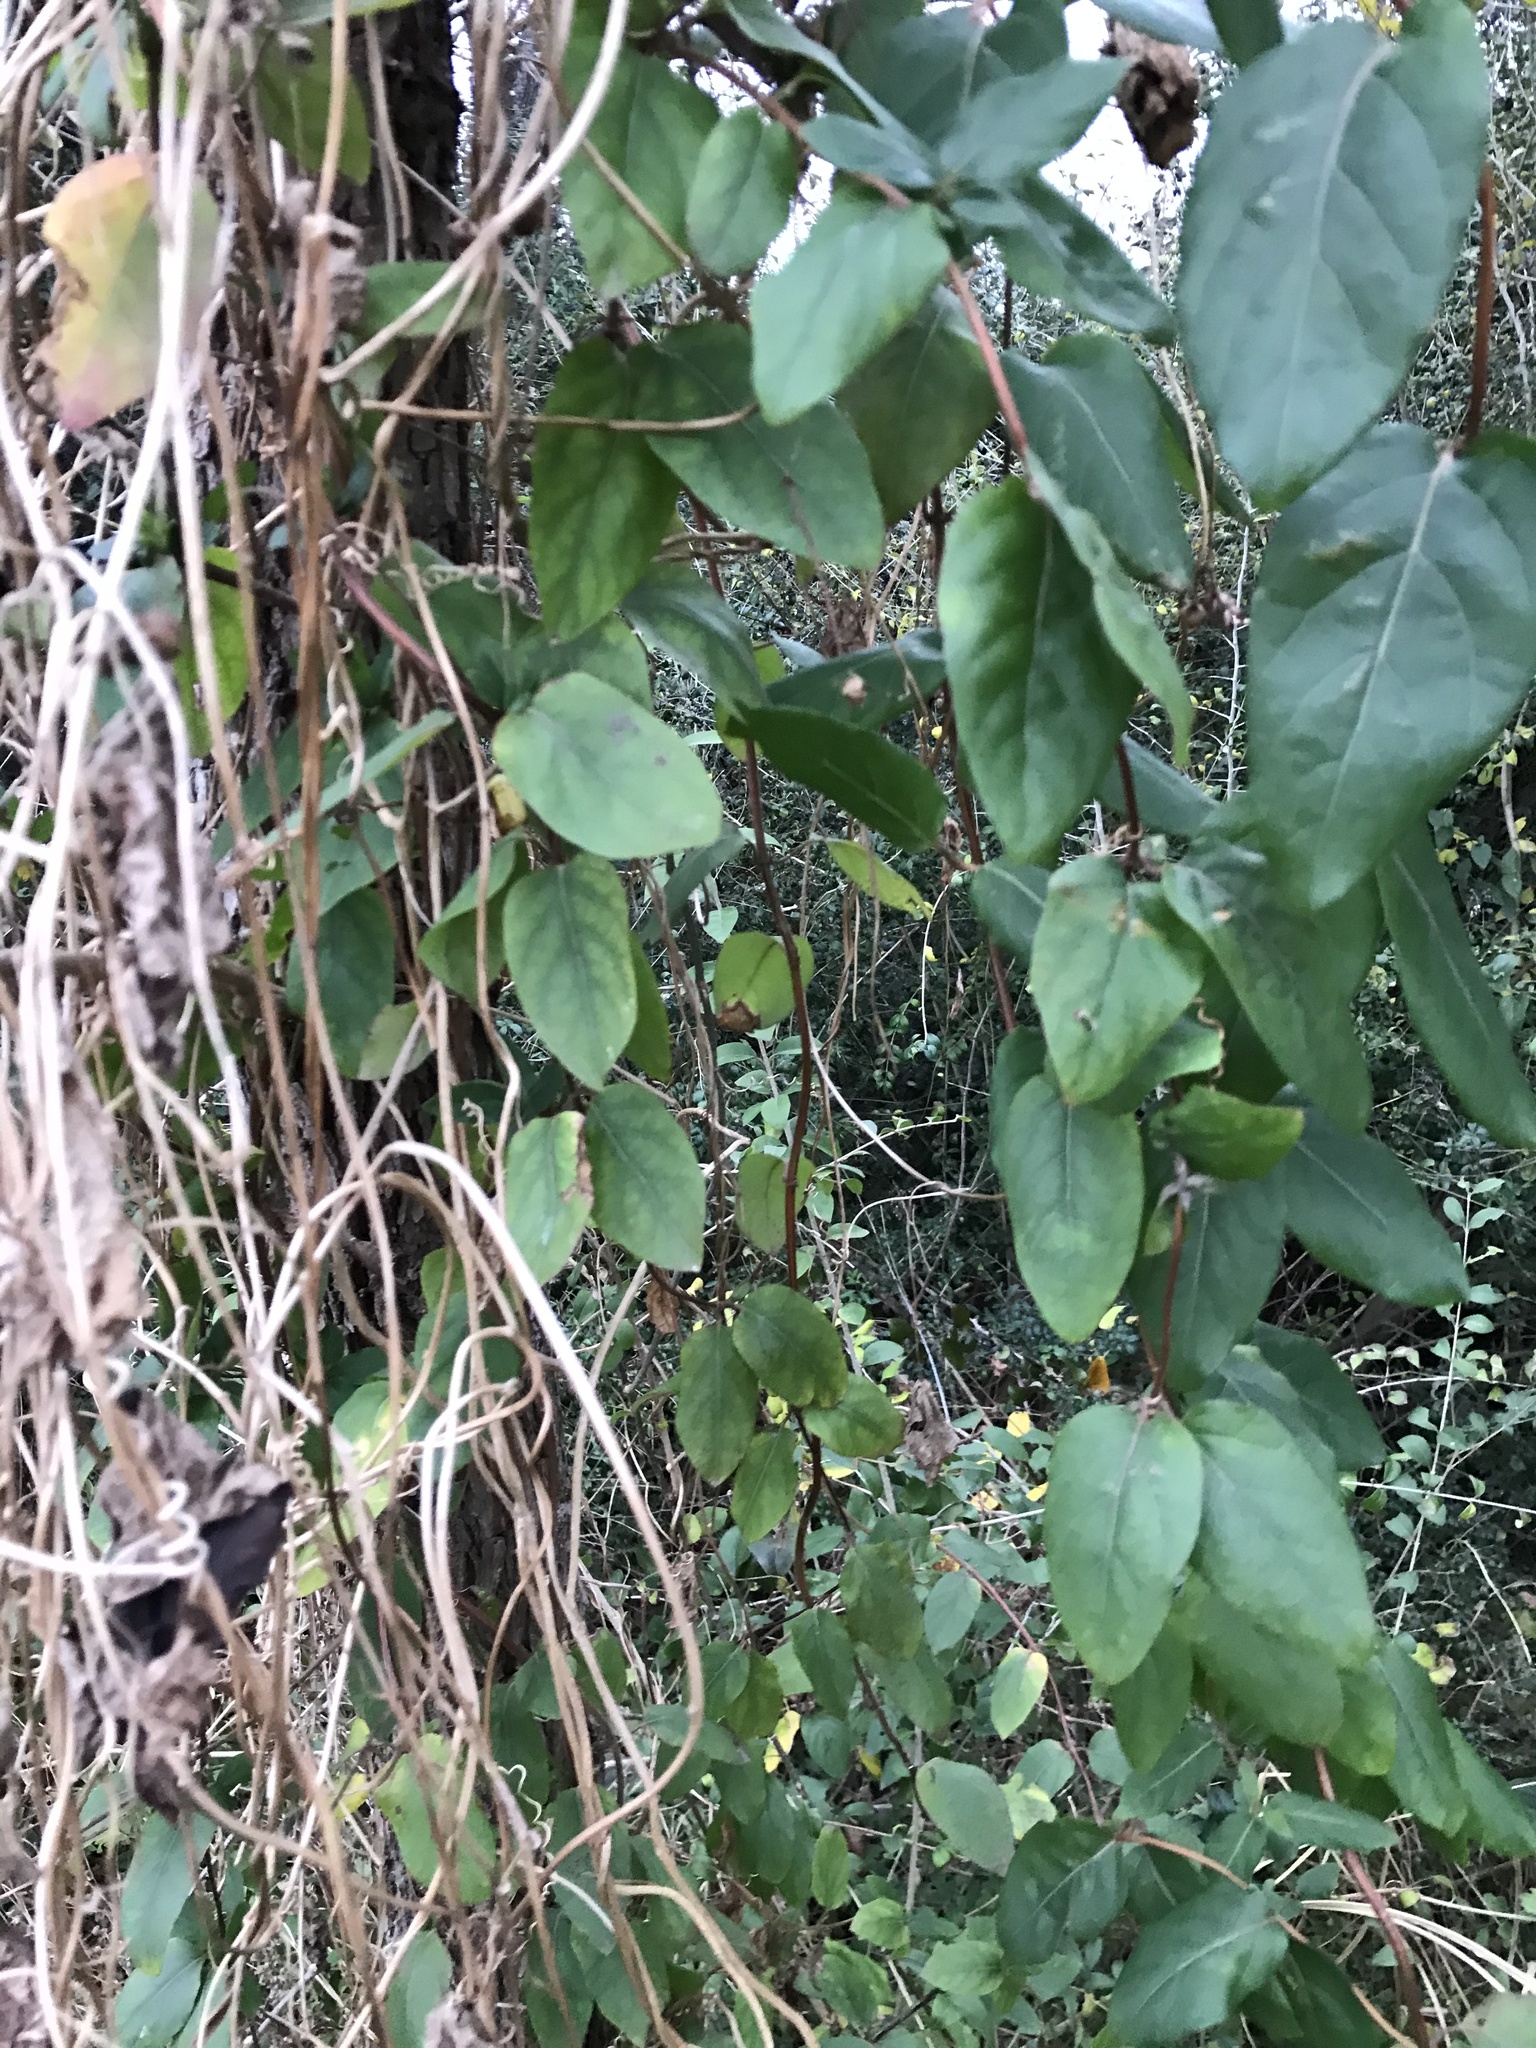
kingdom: Plantae
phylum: Tracheophyta
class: Magnoliopsida
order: Dipsacales
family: Caprifoliaceae
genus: Lonicera
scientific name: Lonicera japonica
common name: Japanese honeysuckle
